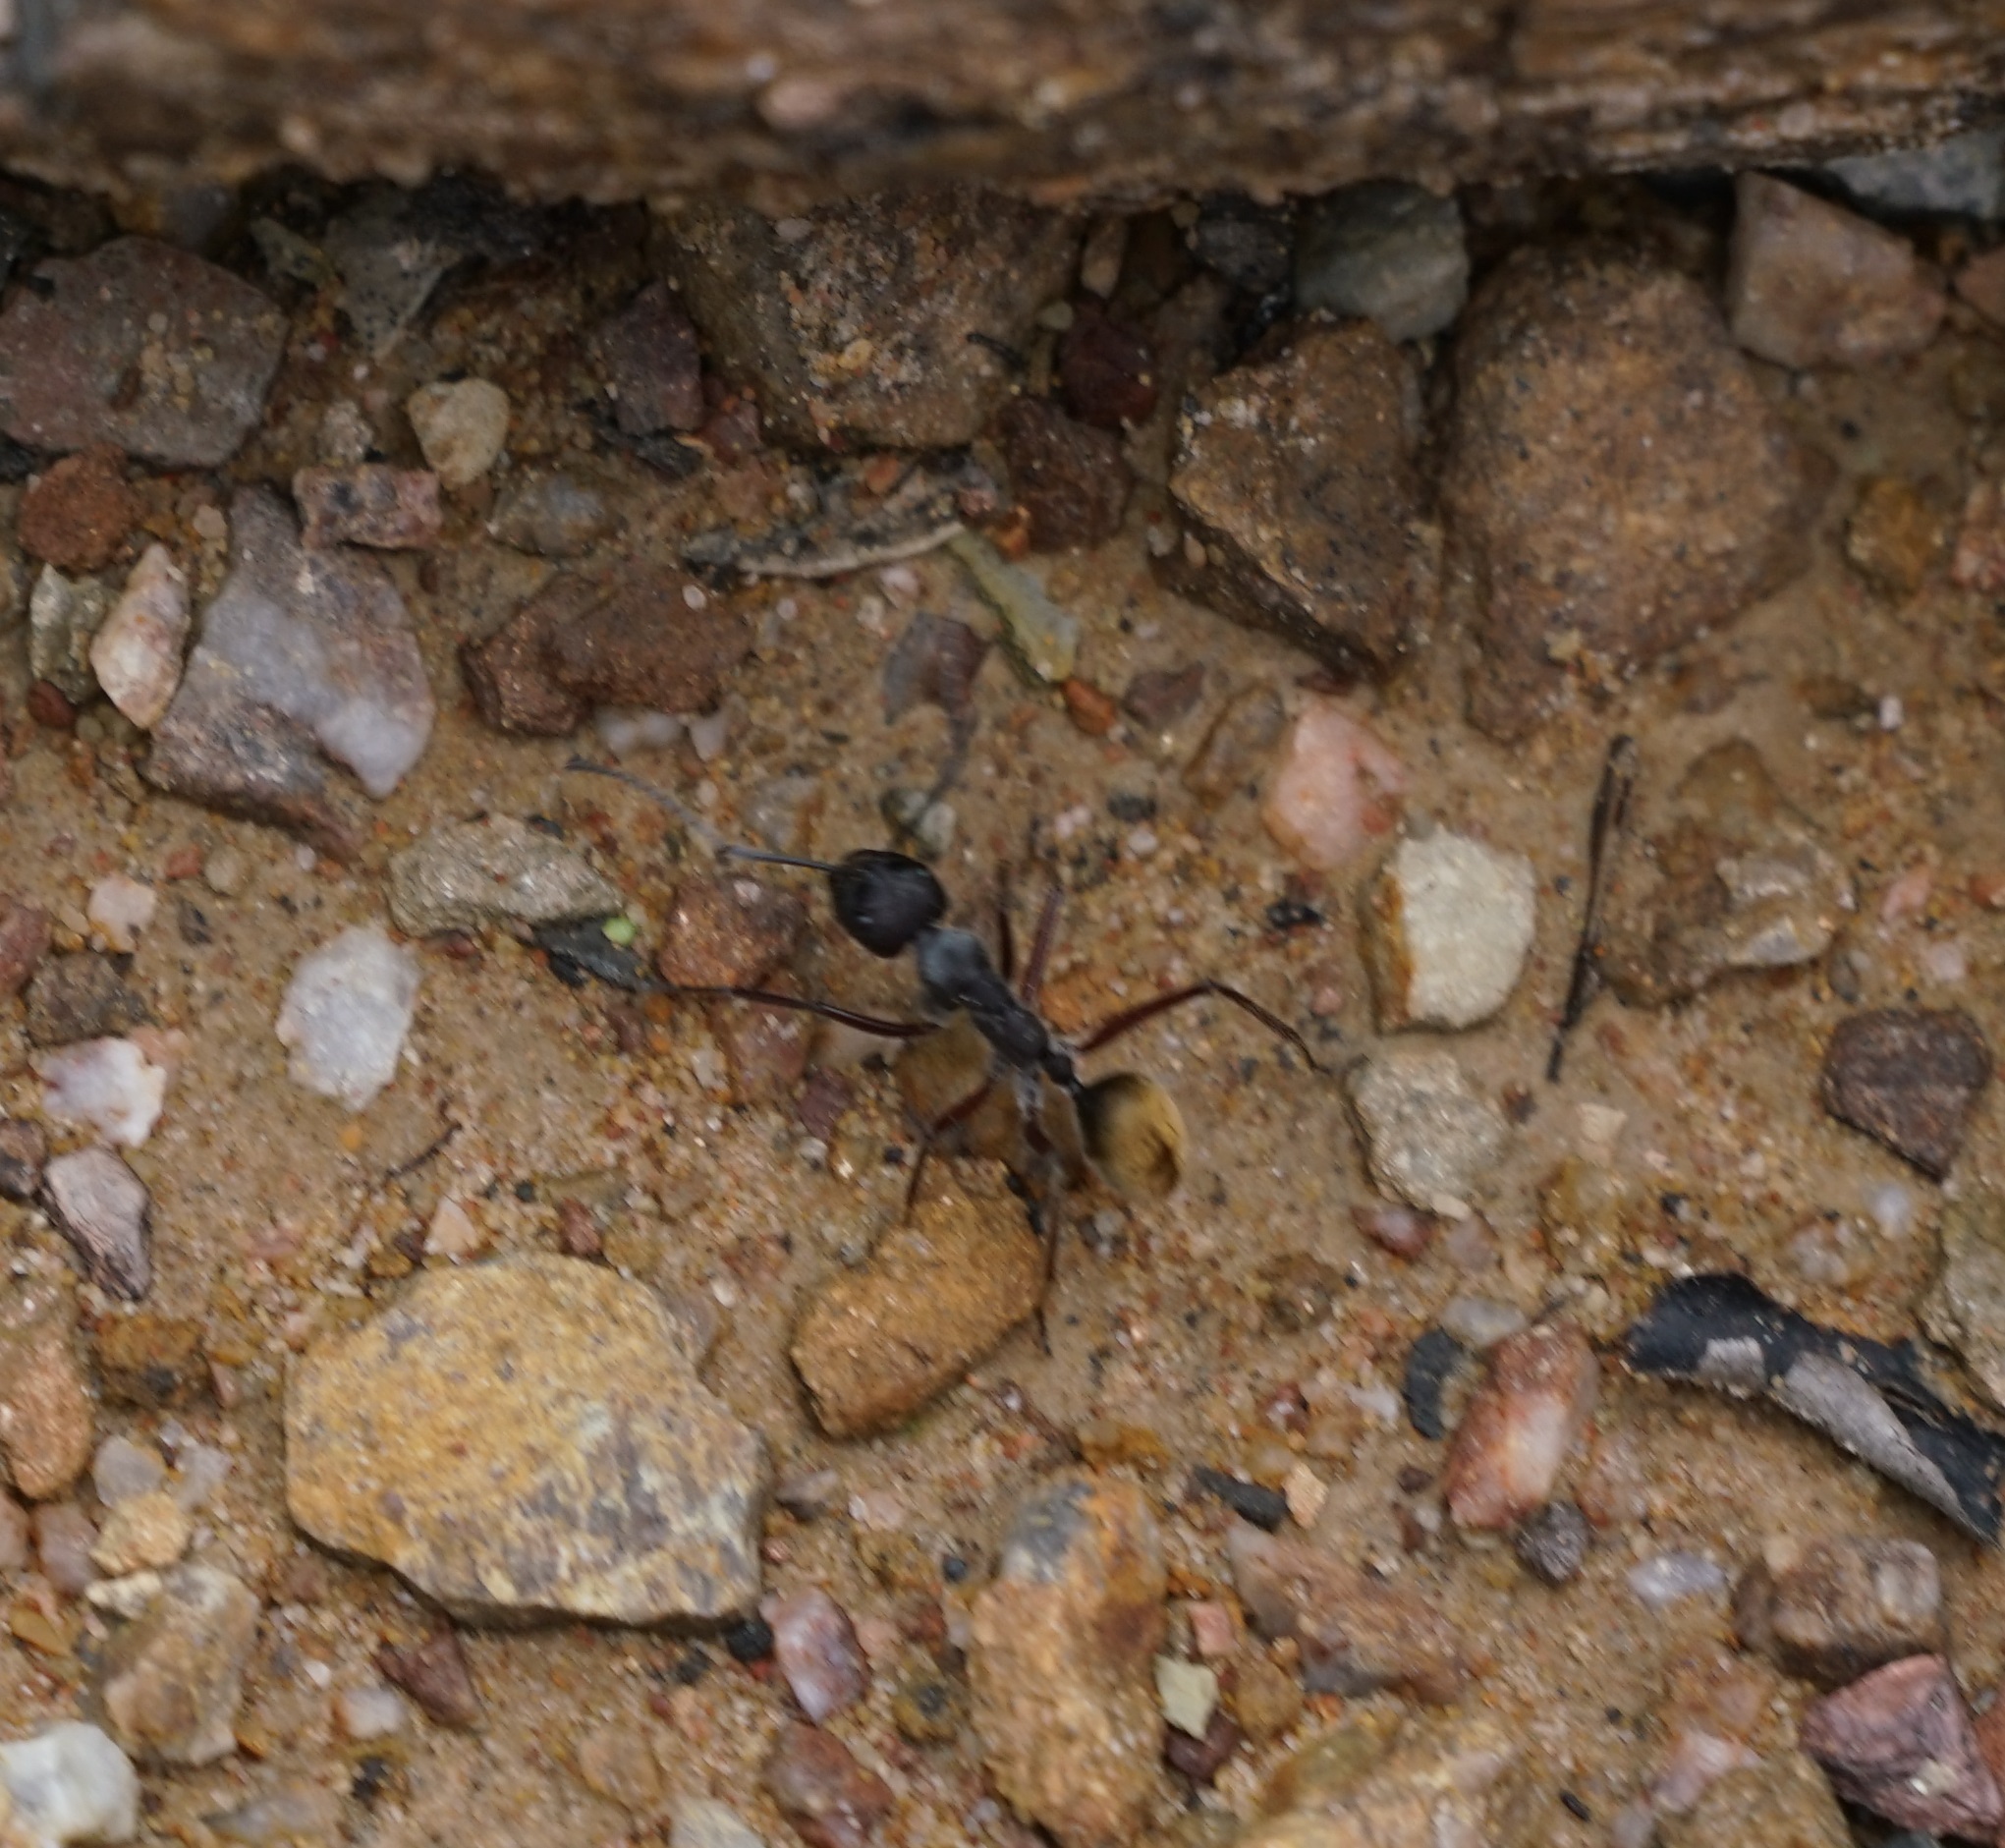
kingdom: Animalia
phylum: Arthropoda
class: Insecta
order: Hymenoptera
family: Formicidae
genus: Camponotus
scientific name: Camponotus suffusus
